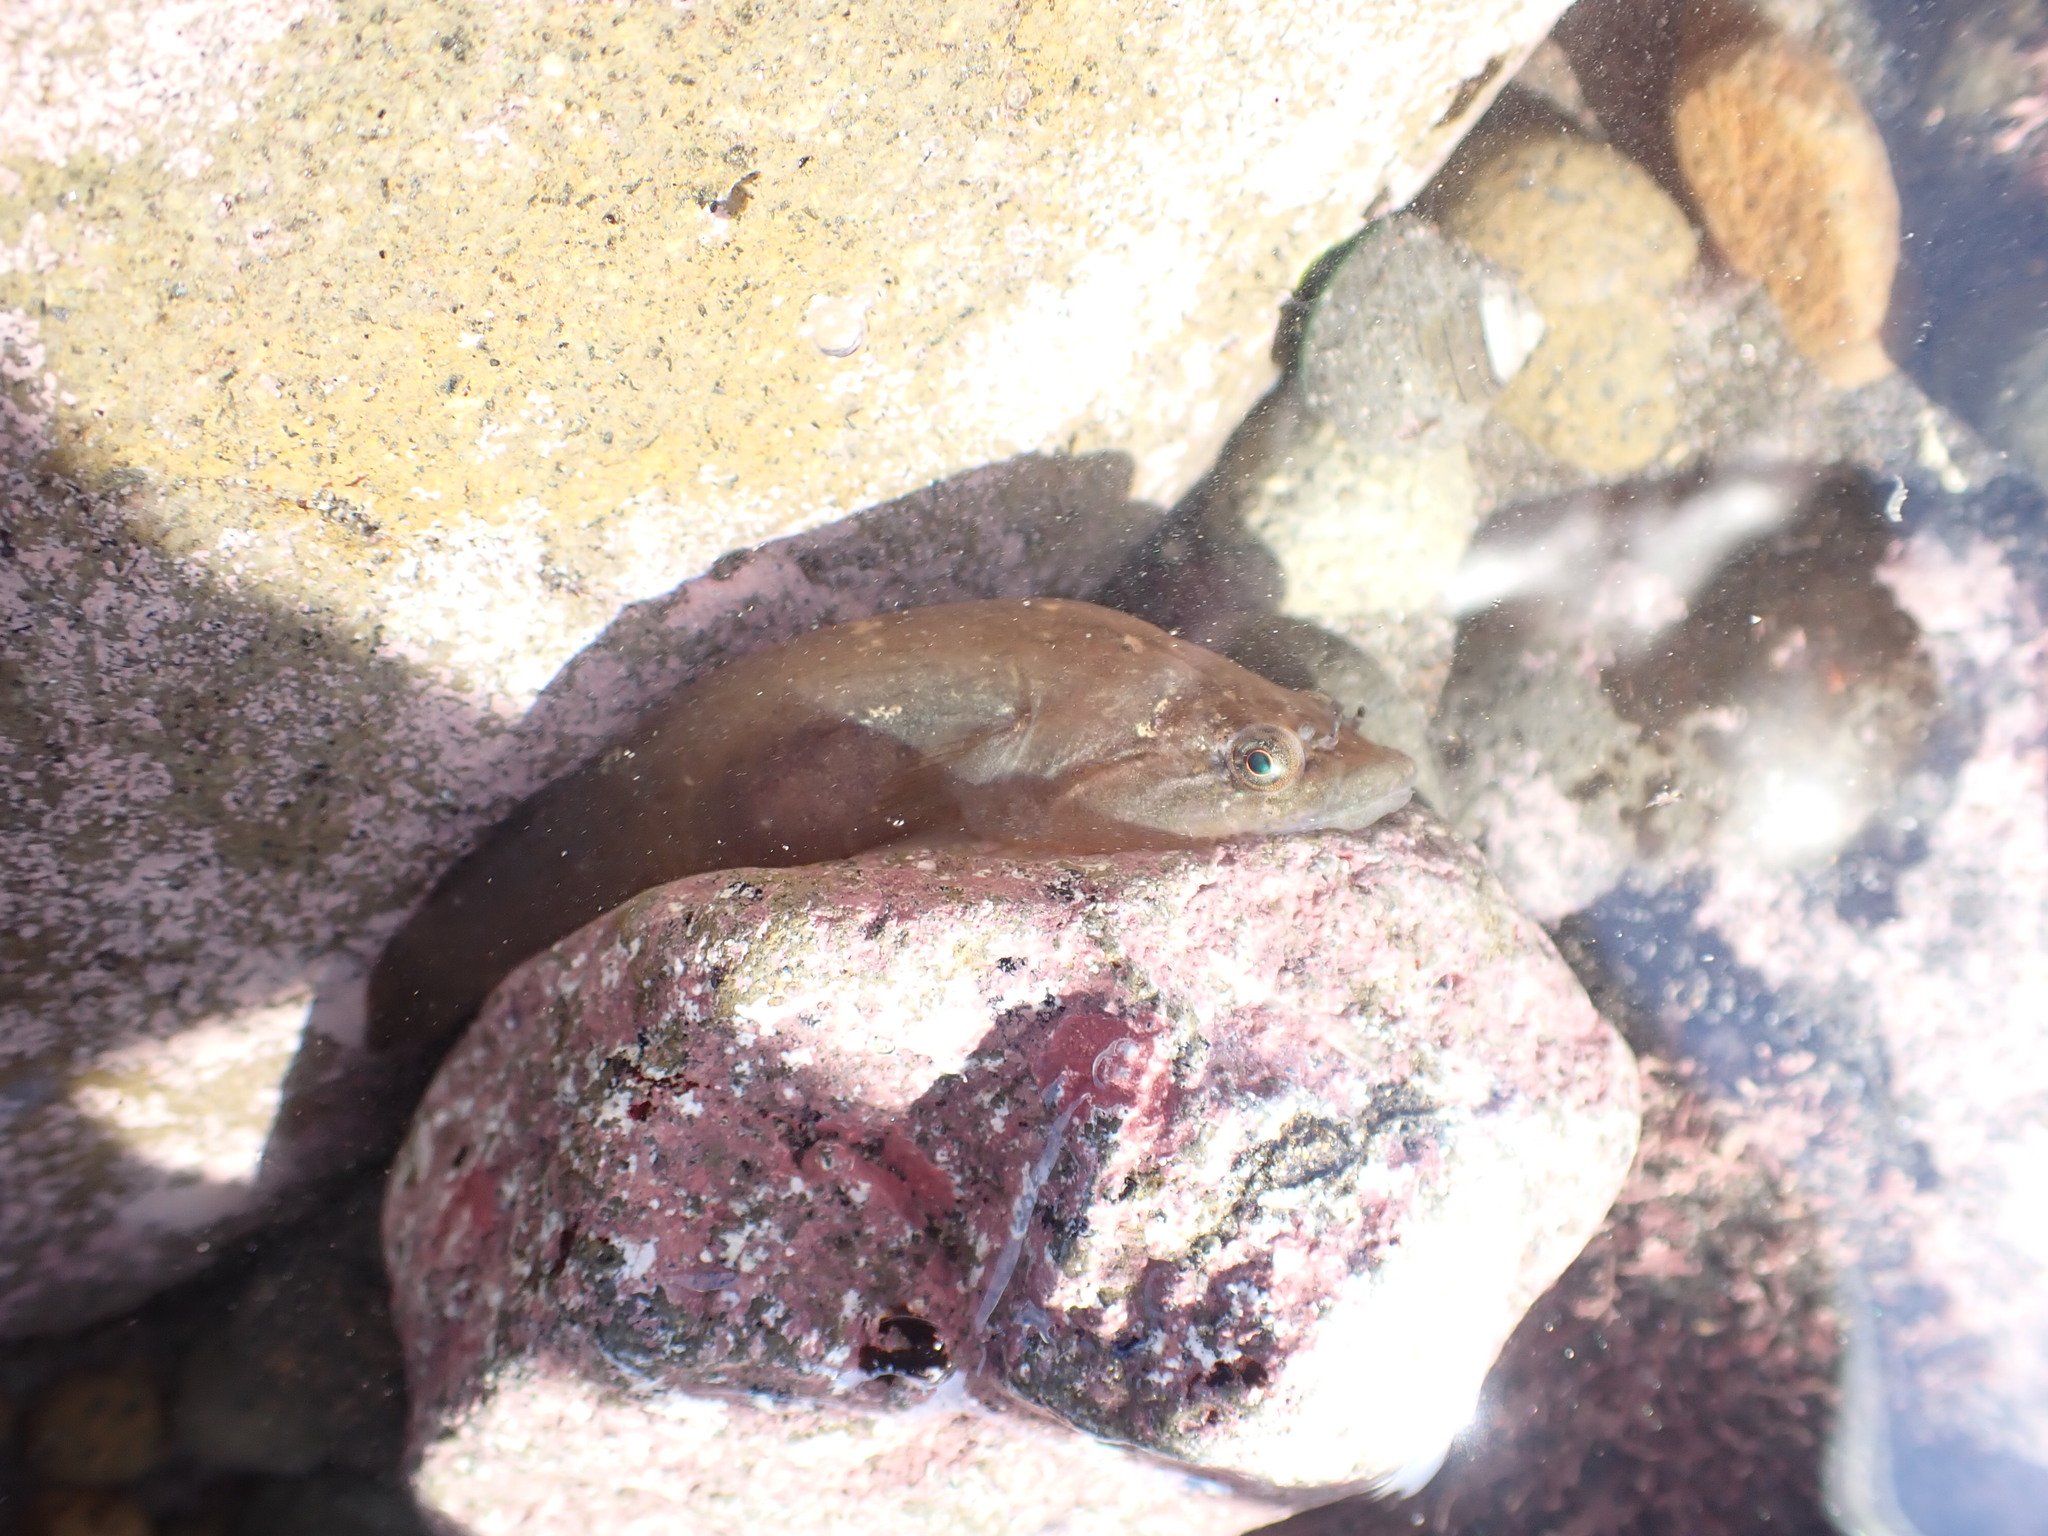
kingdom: Animalia
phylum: Chordata
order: Gobiesociformes
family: Gobiesocidae
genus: Trachelochismus
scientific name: Trachelochismus pinnulatus
